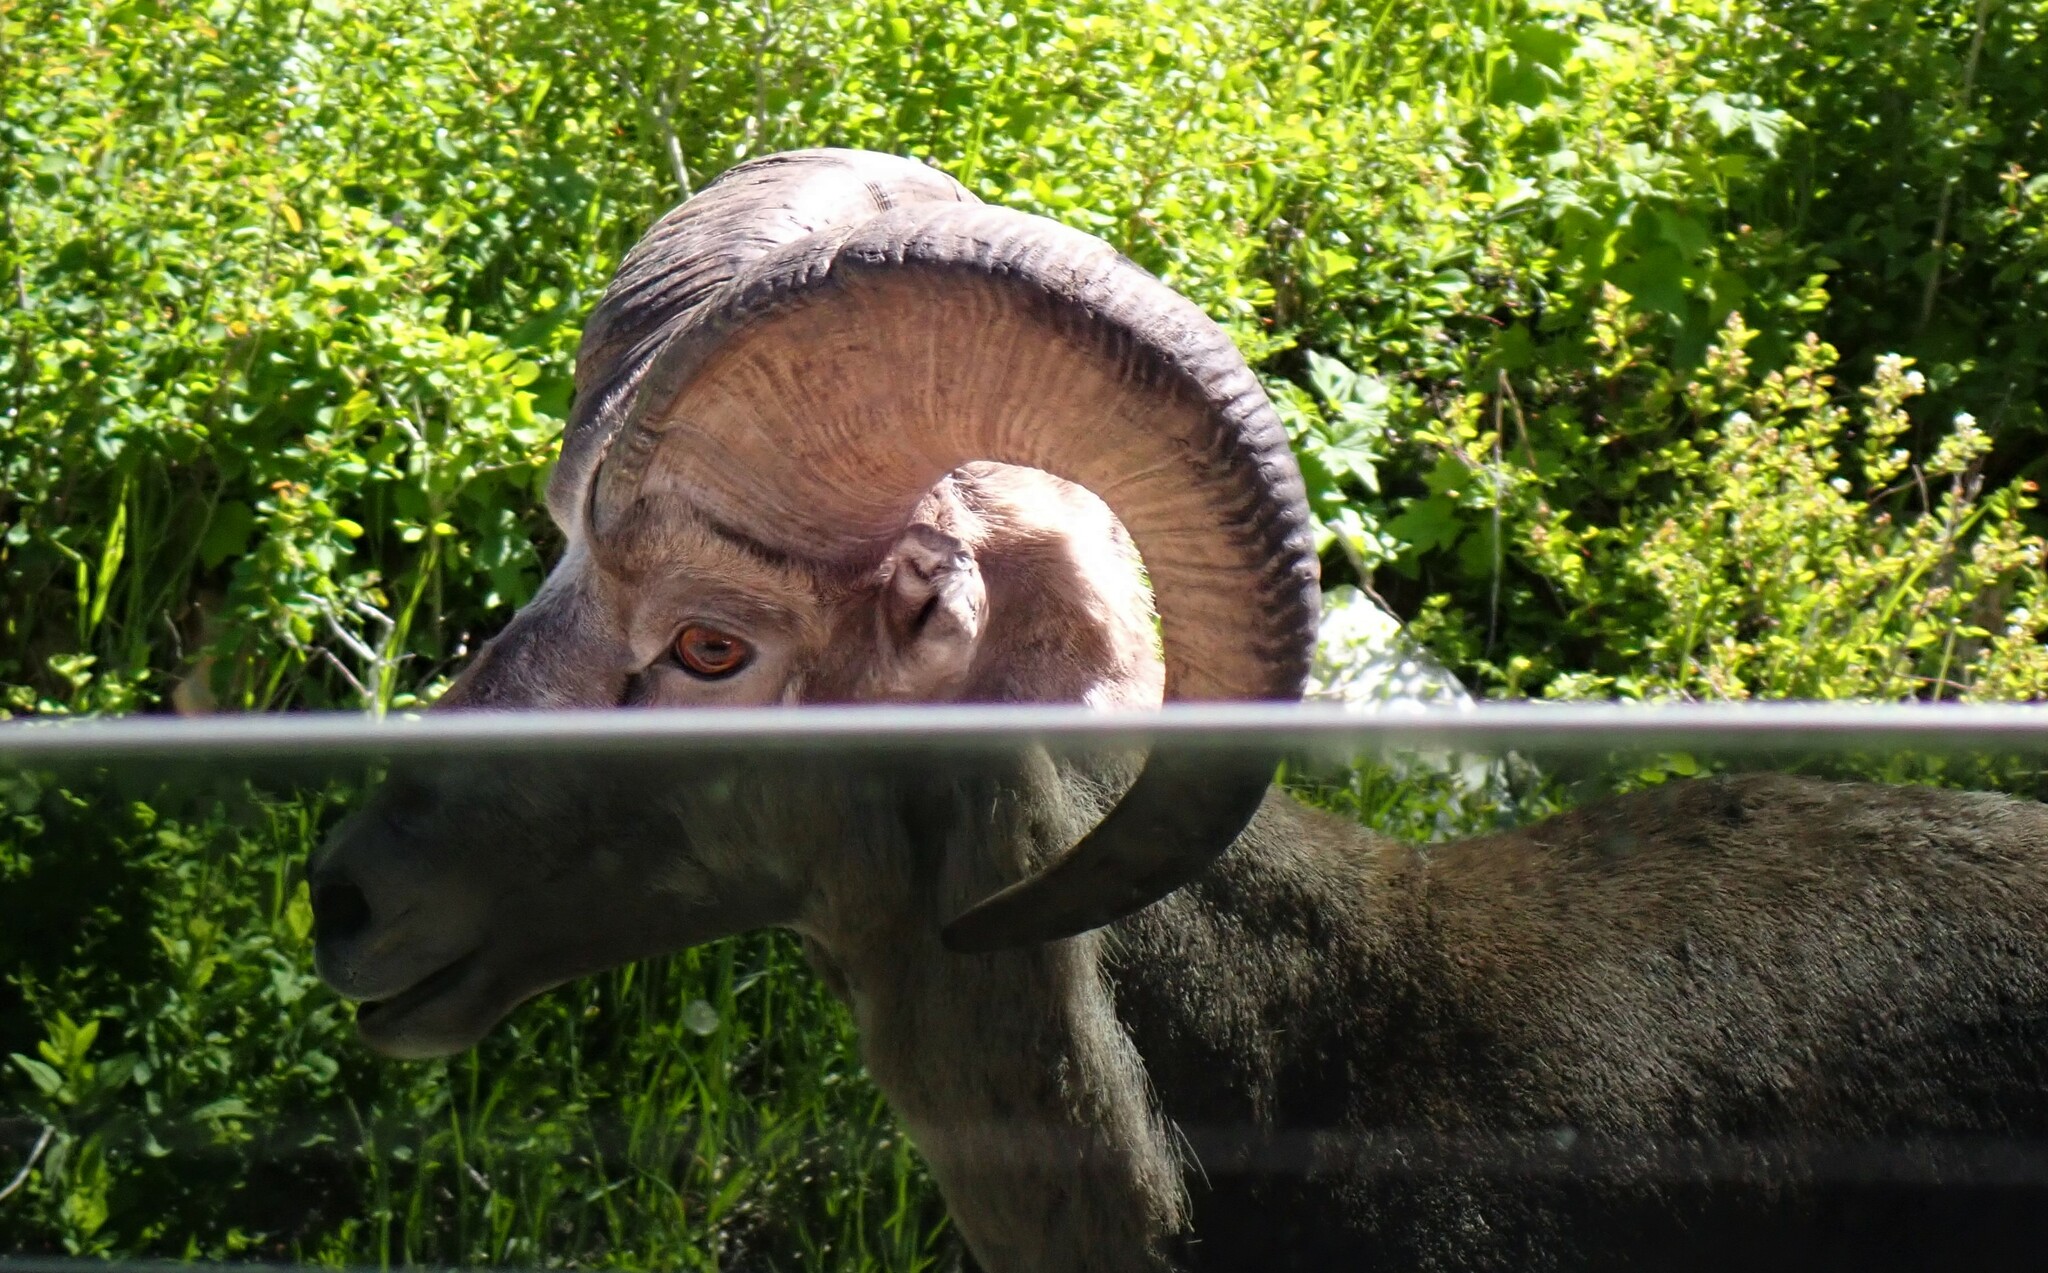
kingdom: Animalia
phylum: Chordata
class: Mammalia
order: Artiodactyla
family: Bovidae
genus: Ovis
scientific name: Ovis canadensis
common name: Bighorn sheep
